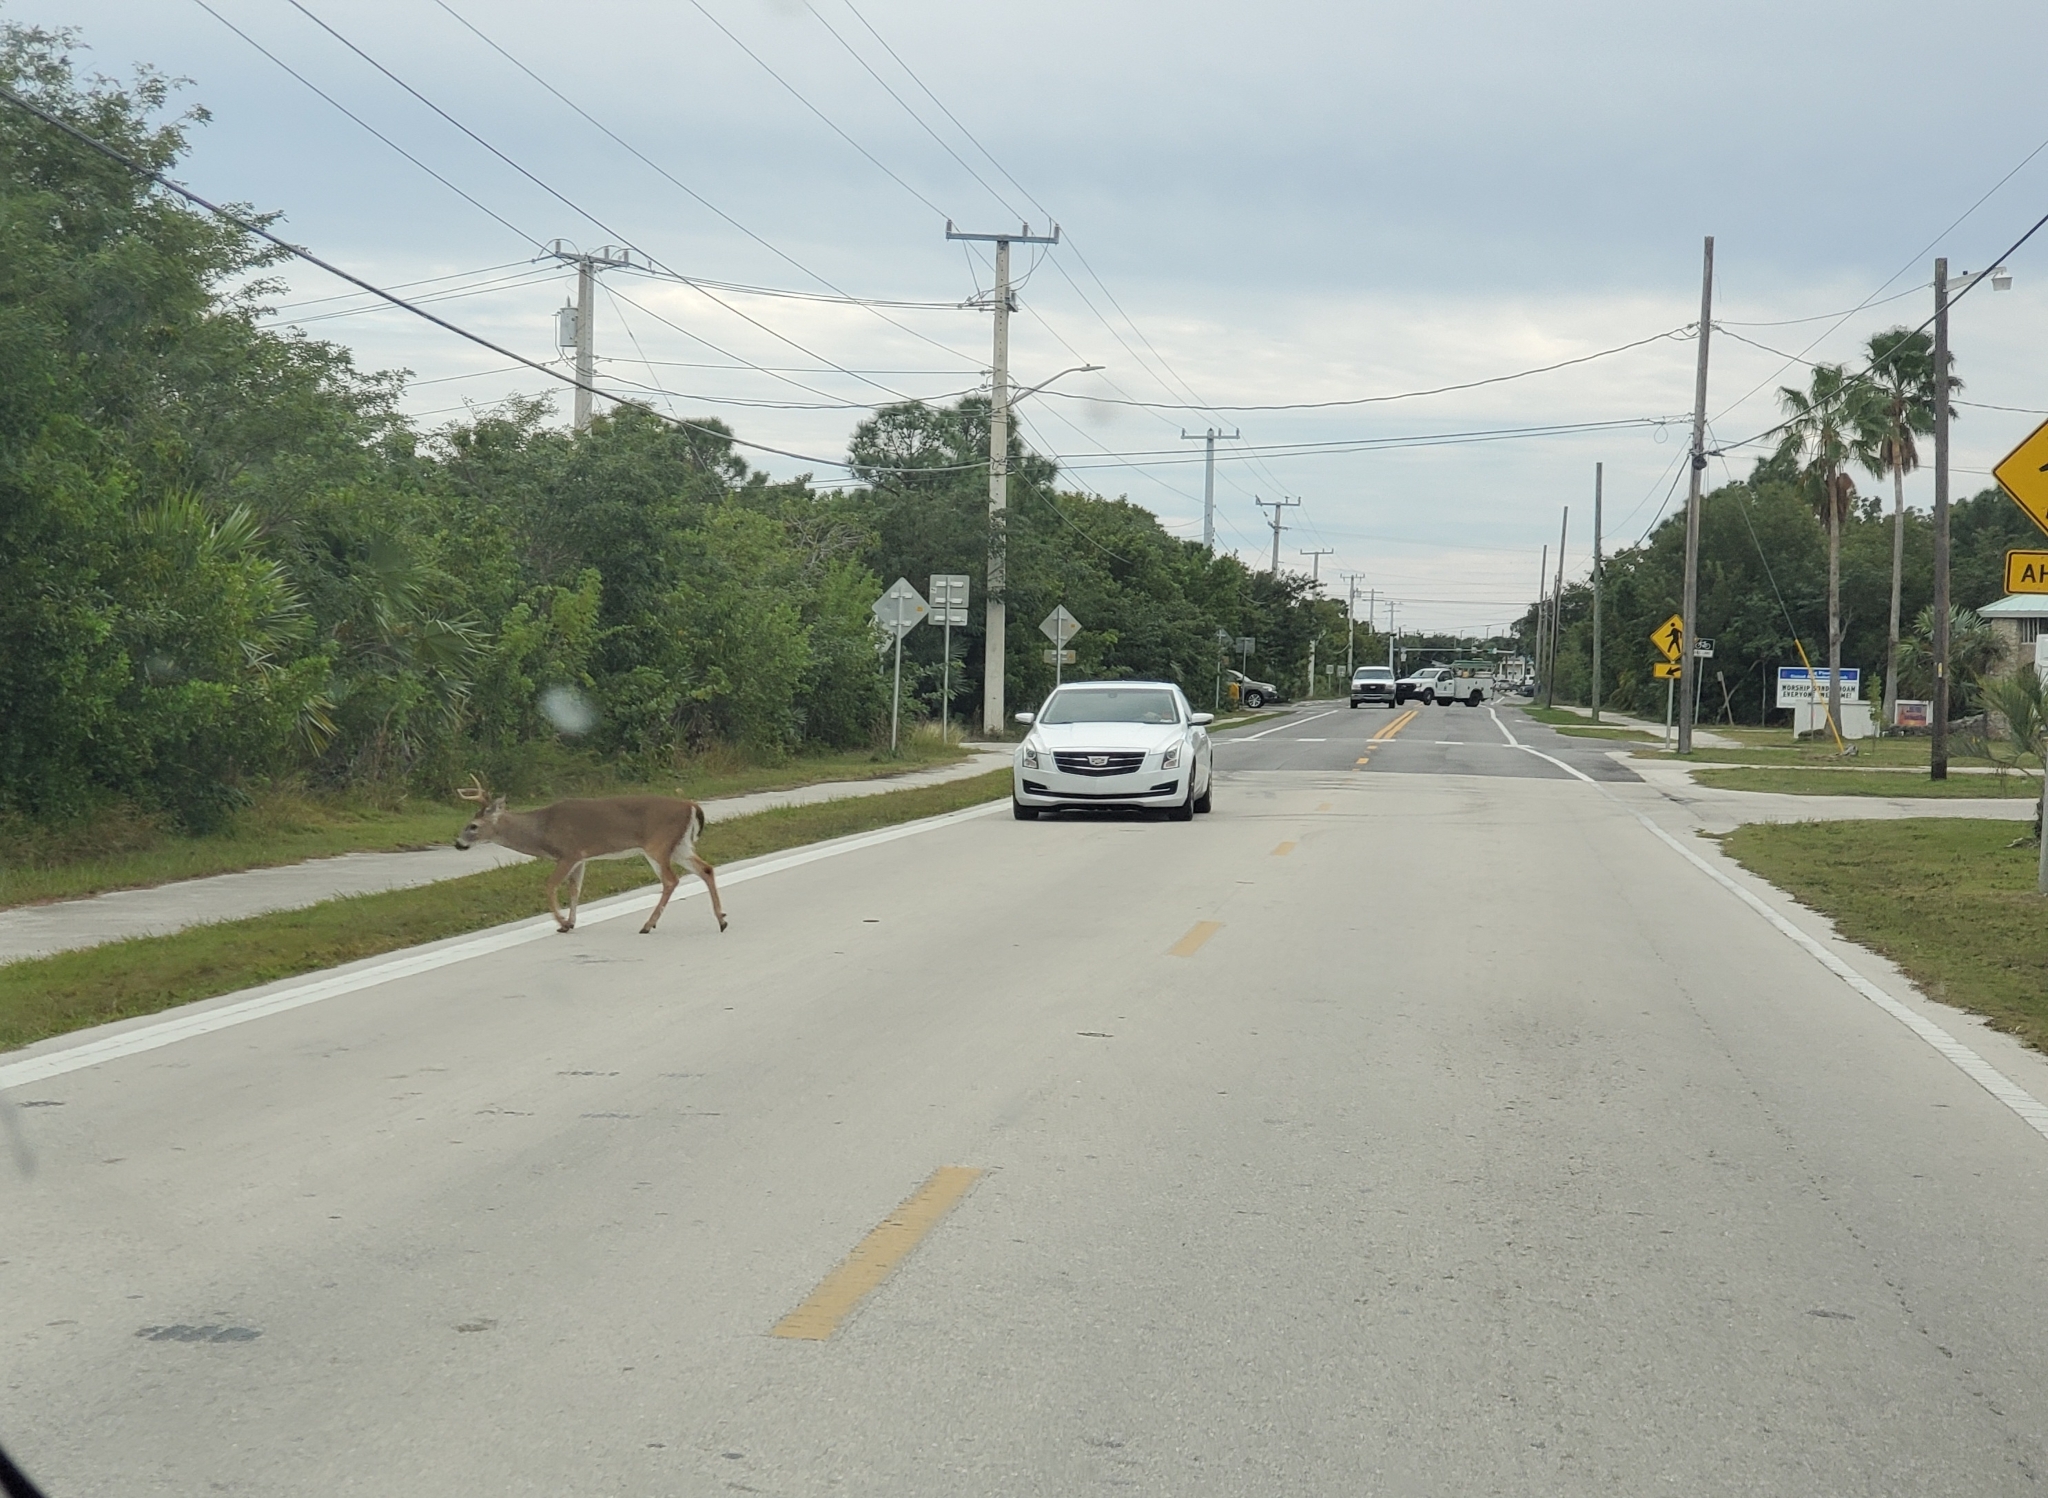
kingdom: Animalia
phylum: Chordata
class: Mammalia
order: Artiodactyla
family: Cervidae
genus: Odocoileus
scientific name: Odocoileus virginianus
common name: White-tailed deer
